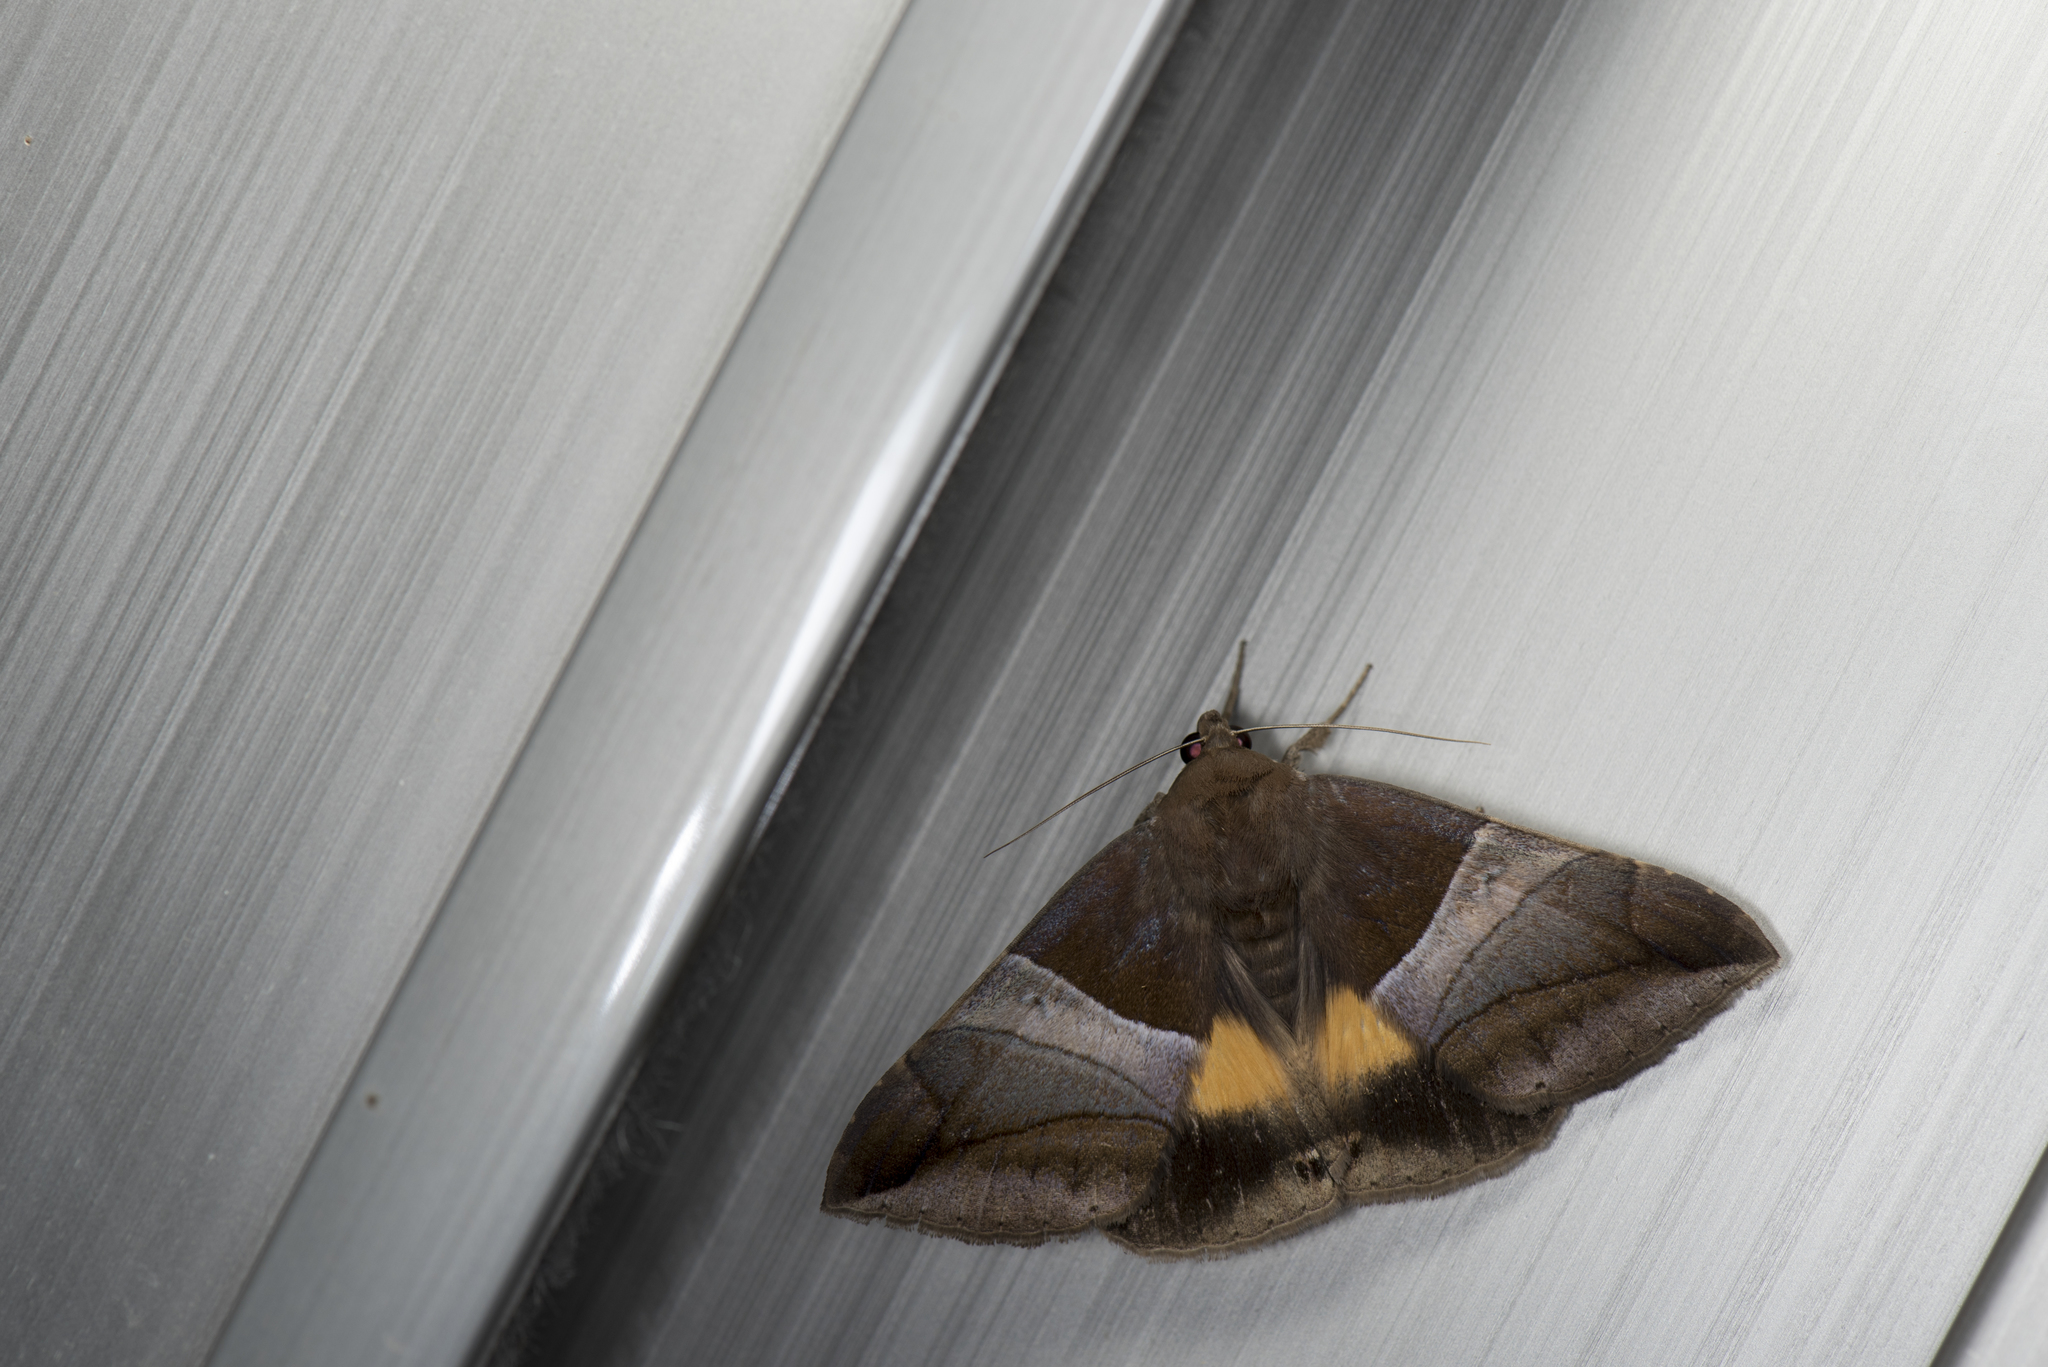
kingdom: Animalia
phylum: Arthropoda
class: Insecta
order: Lepidoptera
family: Erebidae
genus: Bastilla
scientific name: Bastilla fulvotaenia
